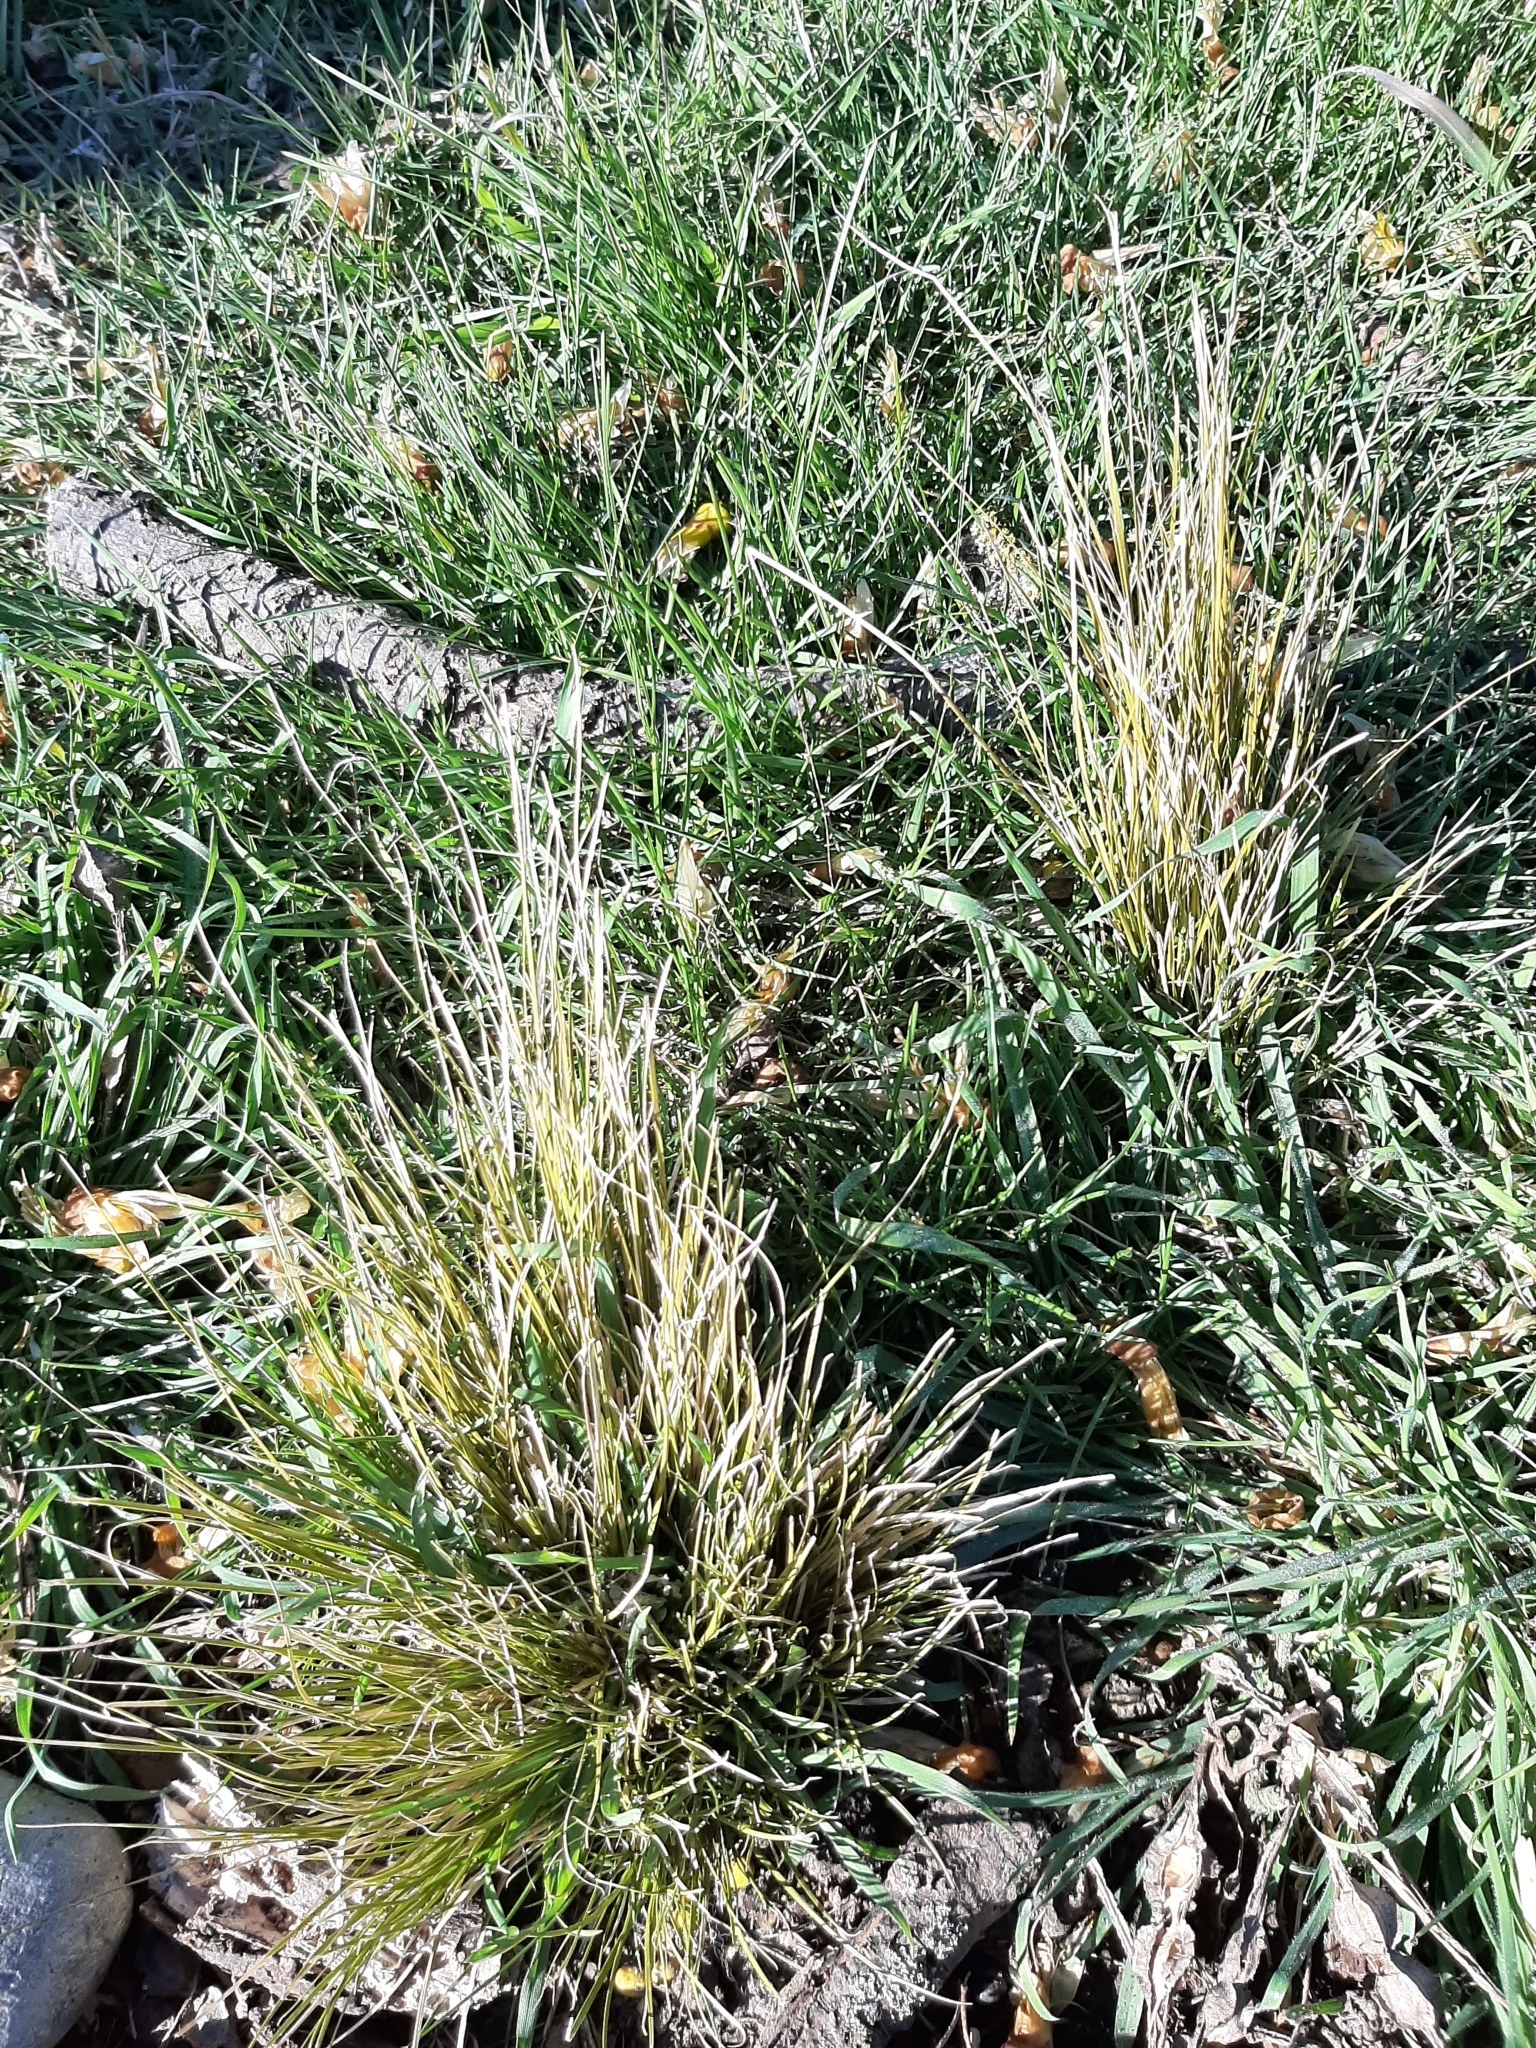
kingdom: Plantae
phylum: Tracheophyta
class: Liliopsida
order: Poales
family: Cyperaceae
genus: Carex
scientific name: Carex comans
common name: Longwood tussock
